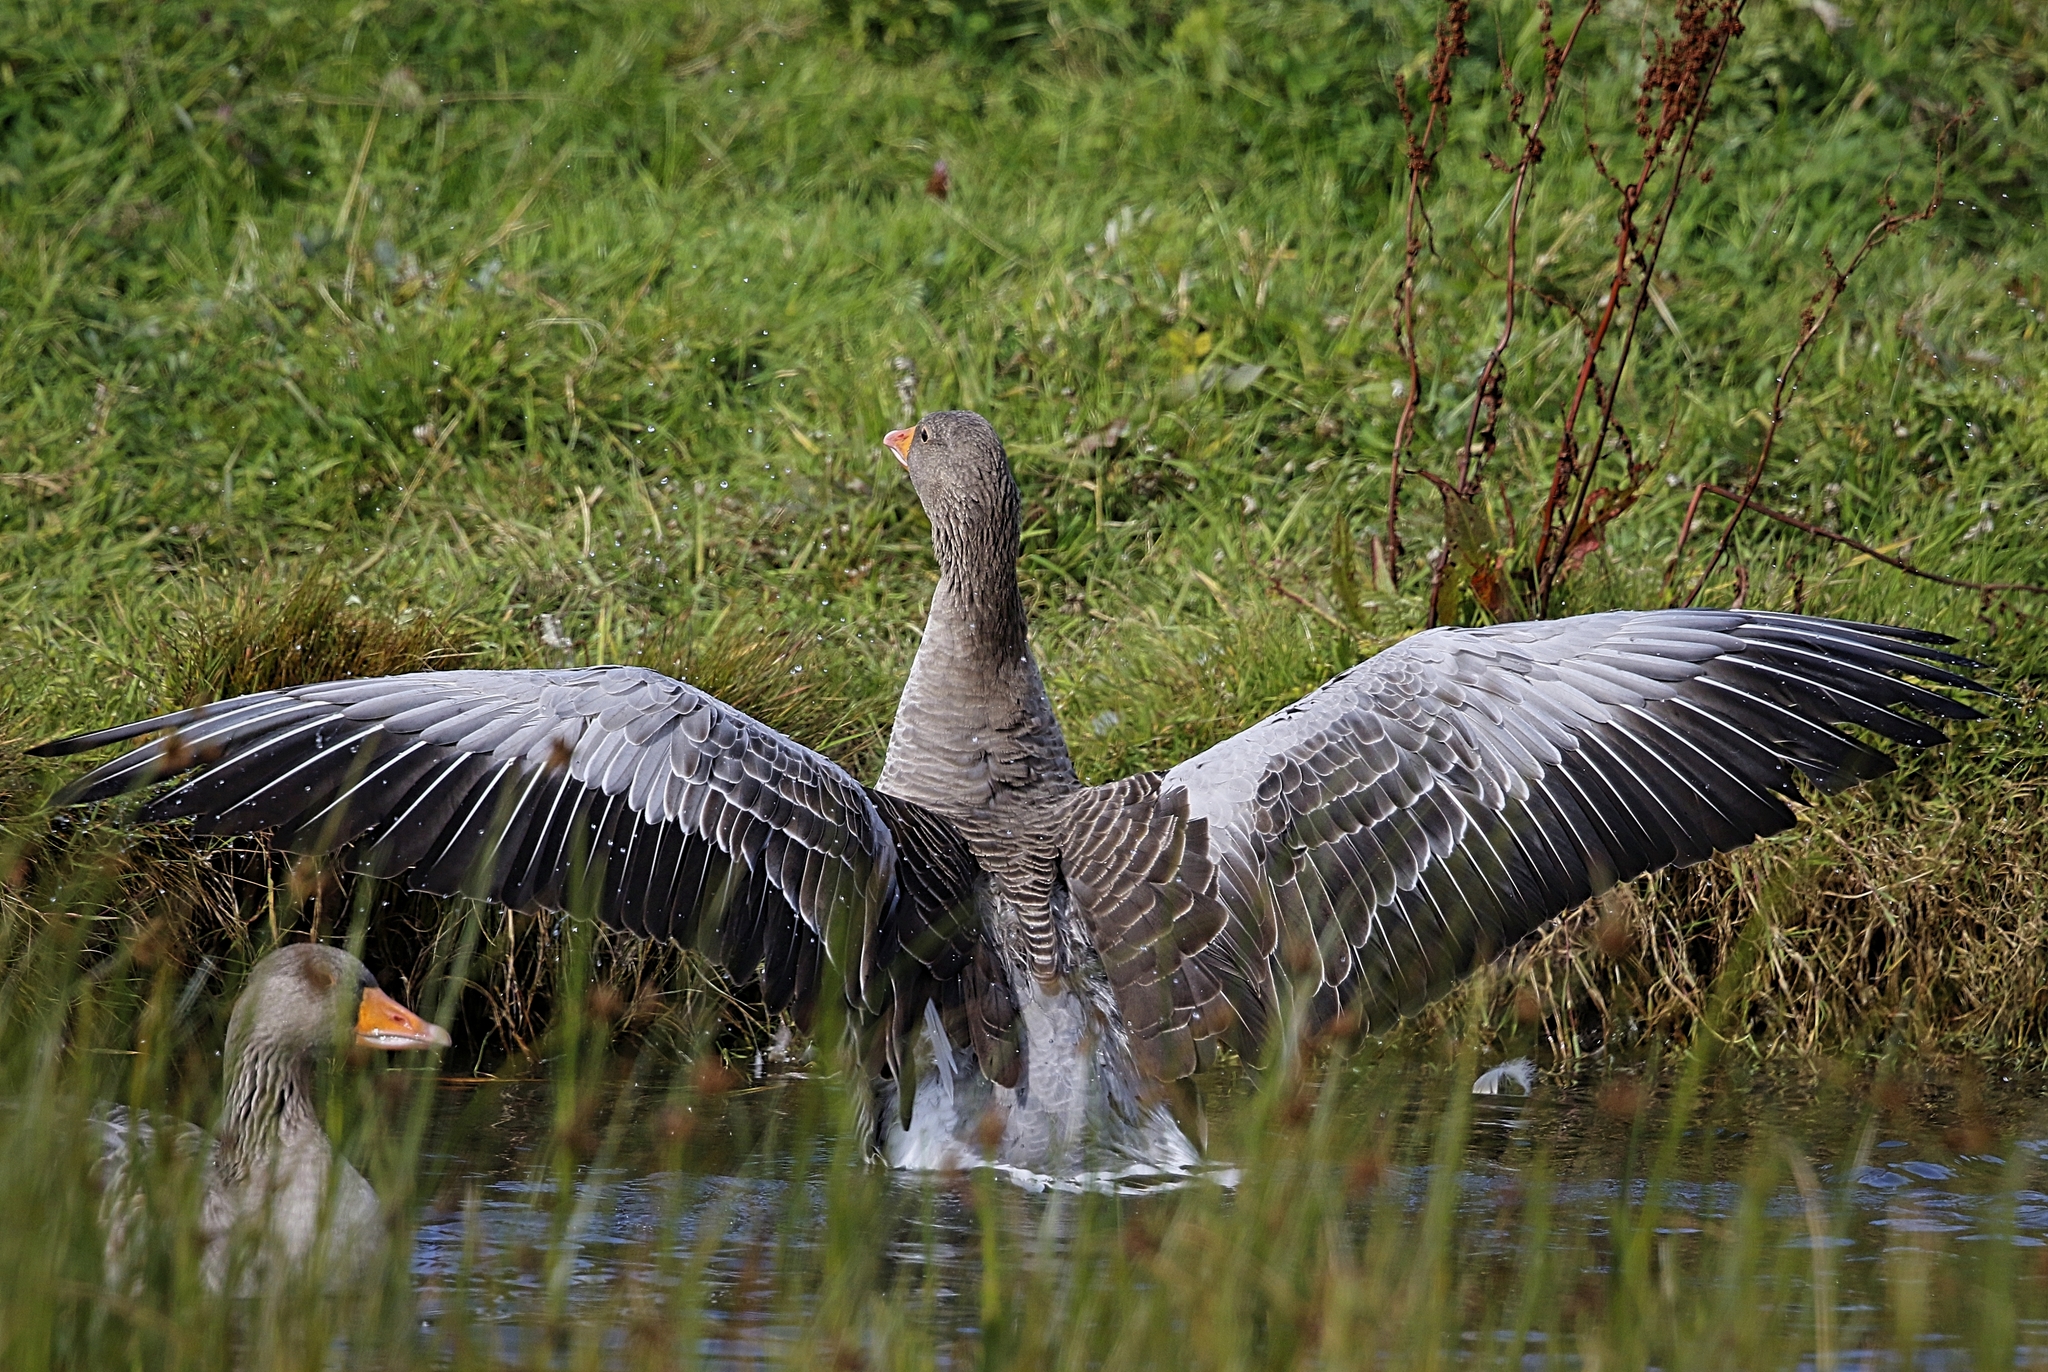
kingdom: Animalia
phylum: Chordata
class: Aves
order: Anseriformes
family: Anatidae
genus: Anser
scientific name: Anser anser
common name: Greylag goose
